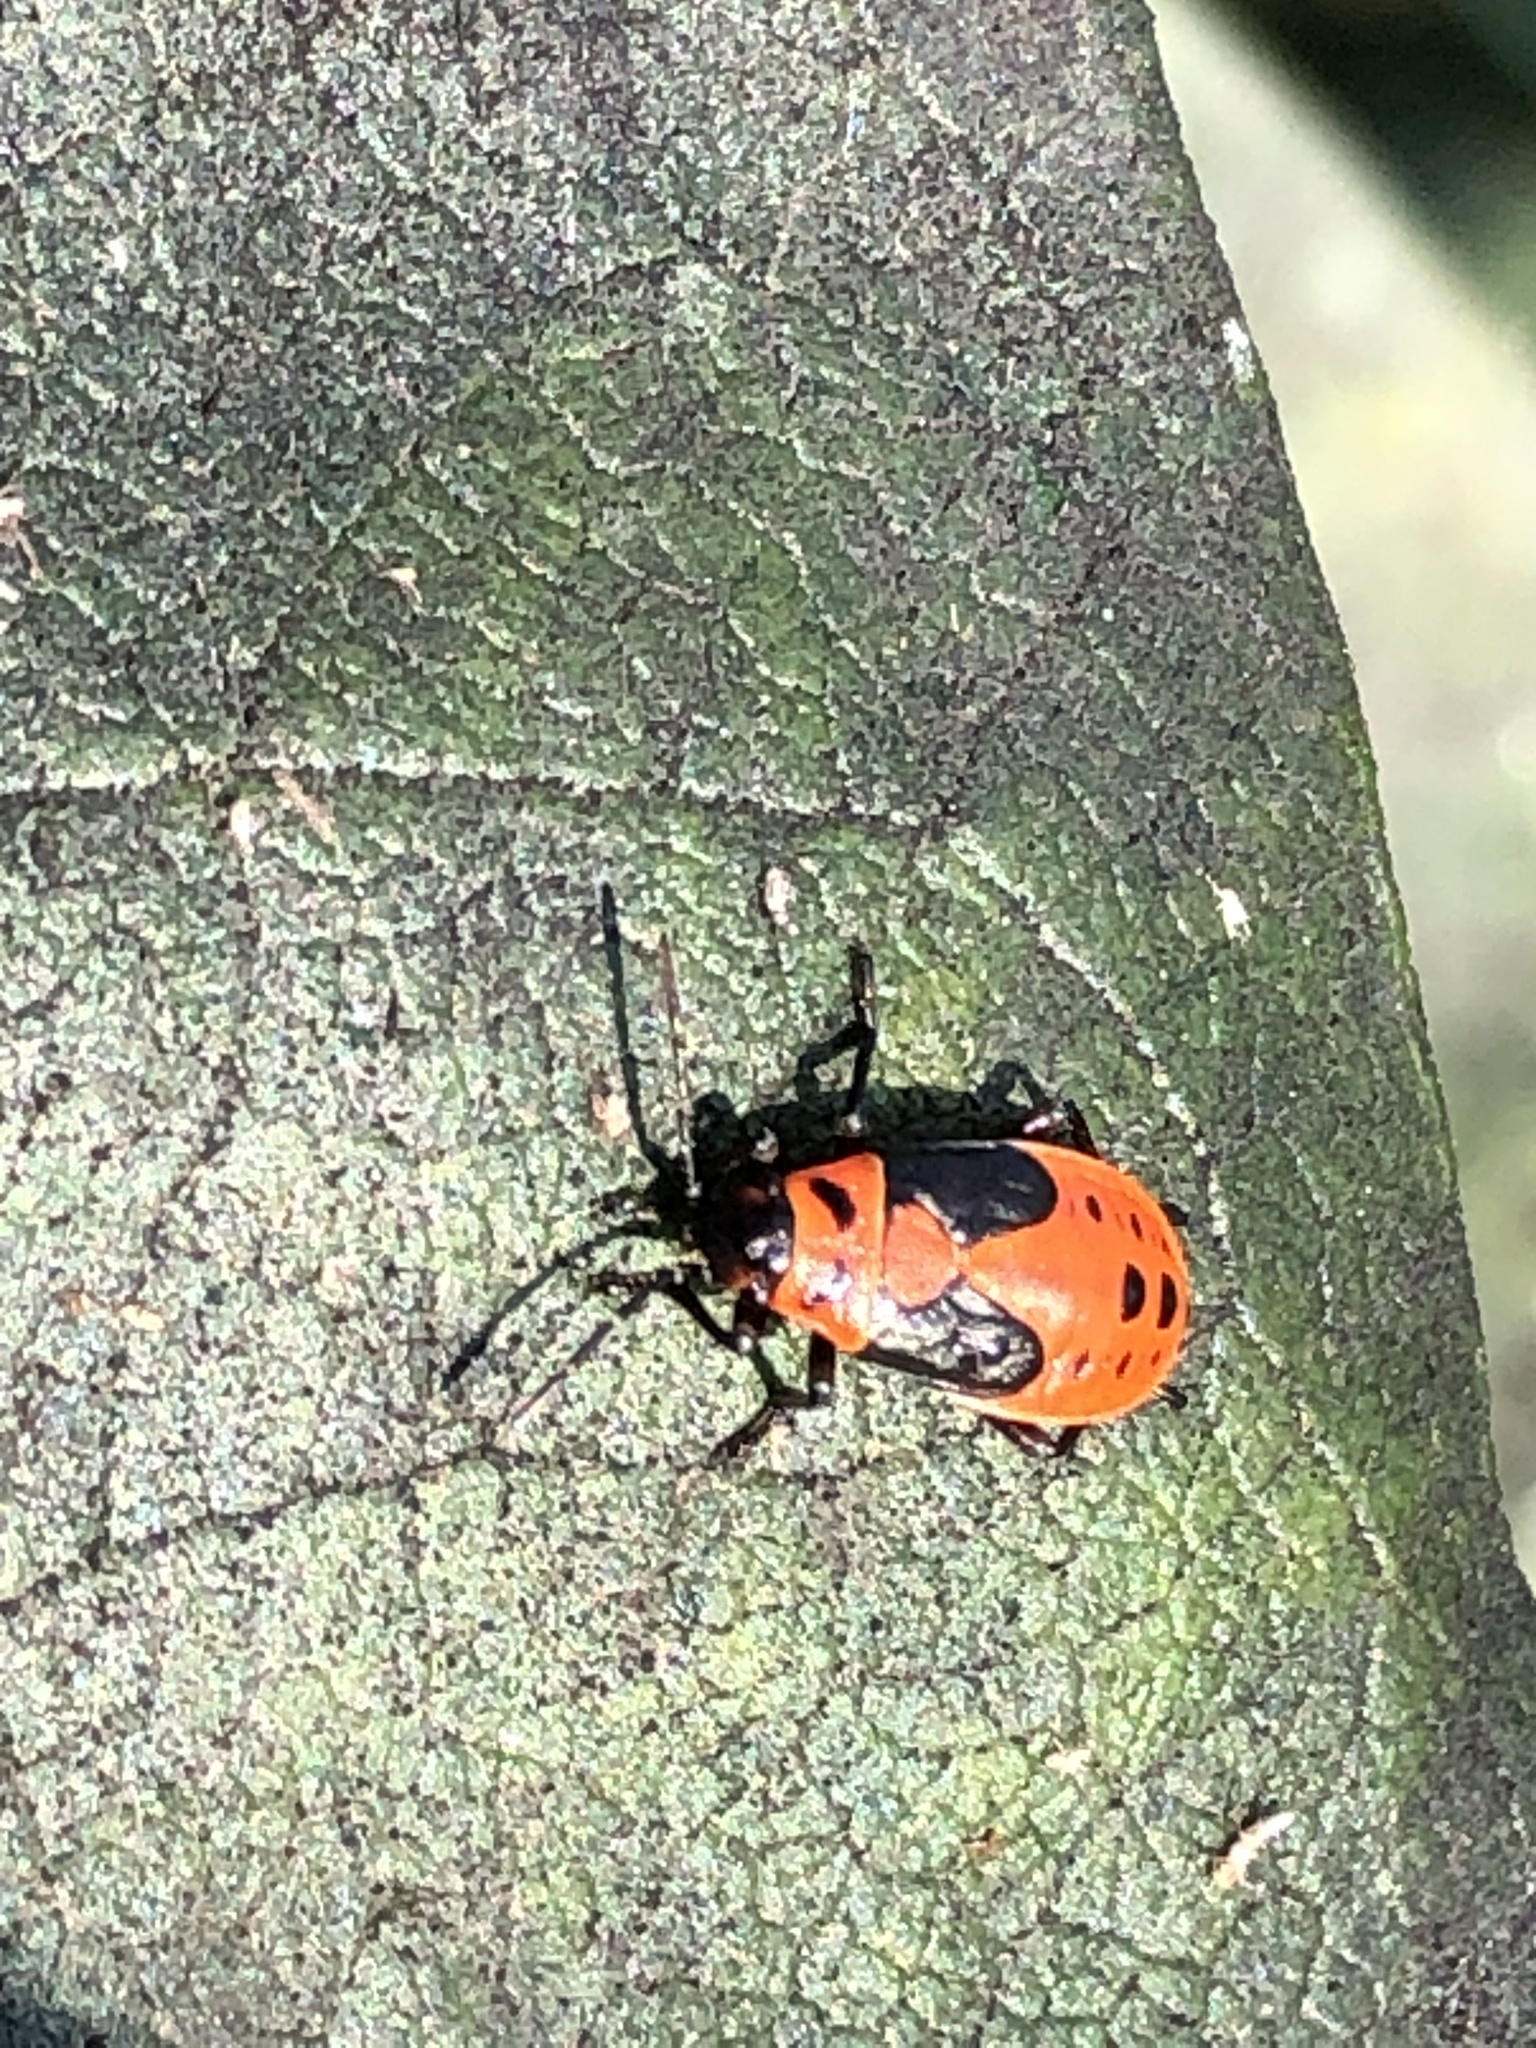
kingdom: Animalia
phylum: Arthropoda
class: Insecta
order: Hemiptera
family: Lygaeidae
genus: Lygaeus
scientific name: Lygaeus kalmii
